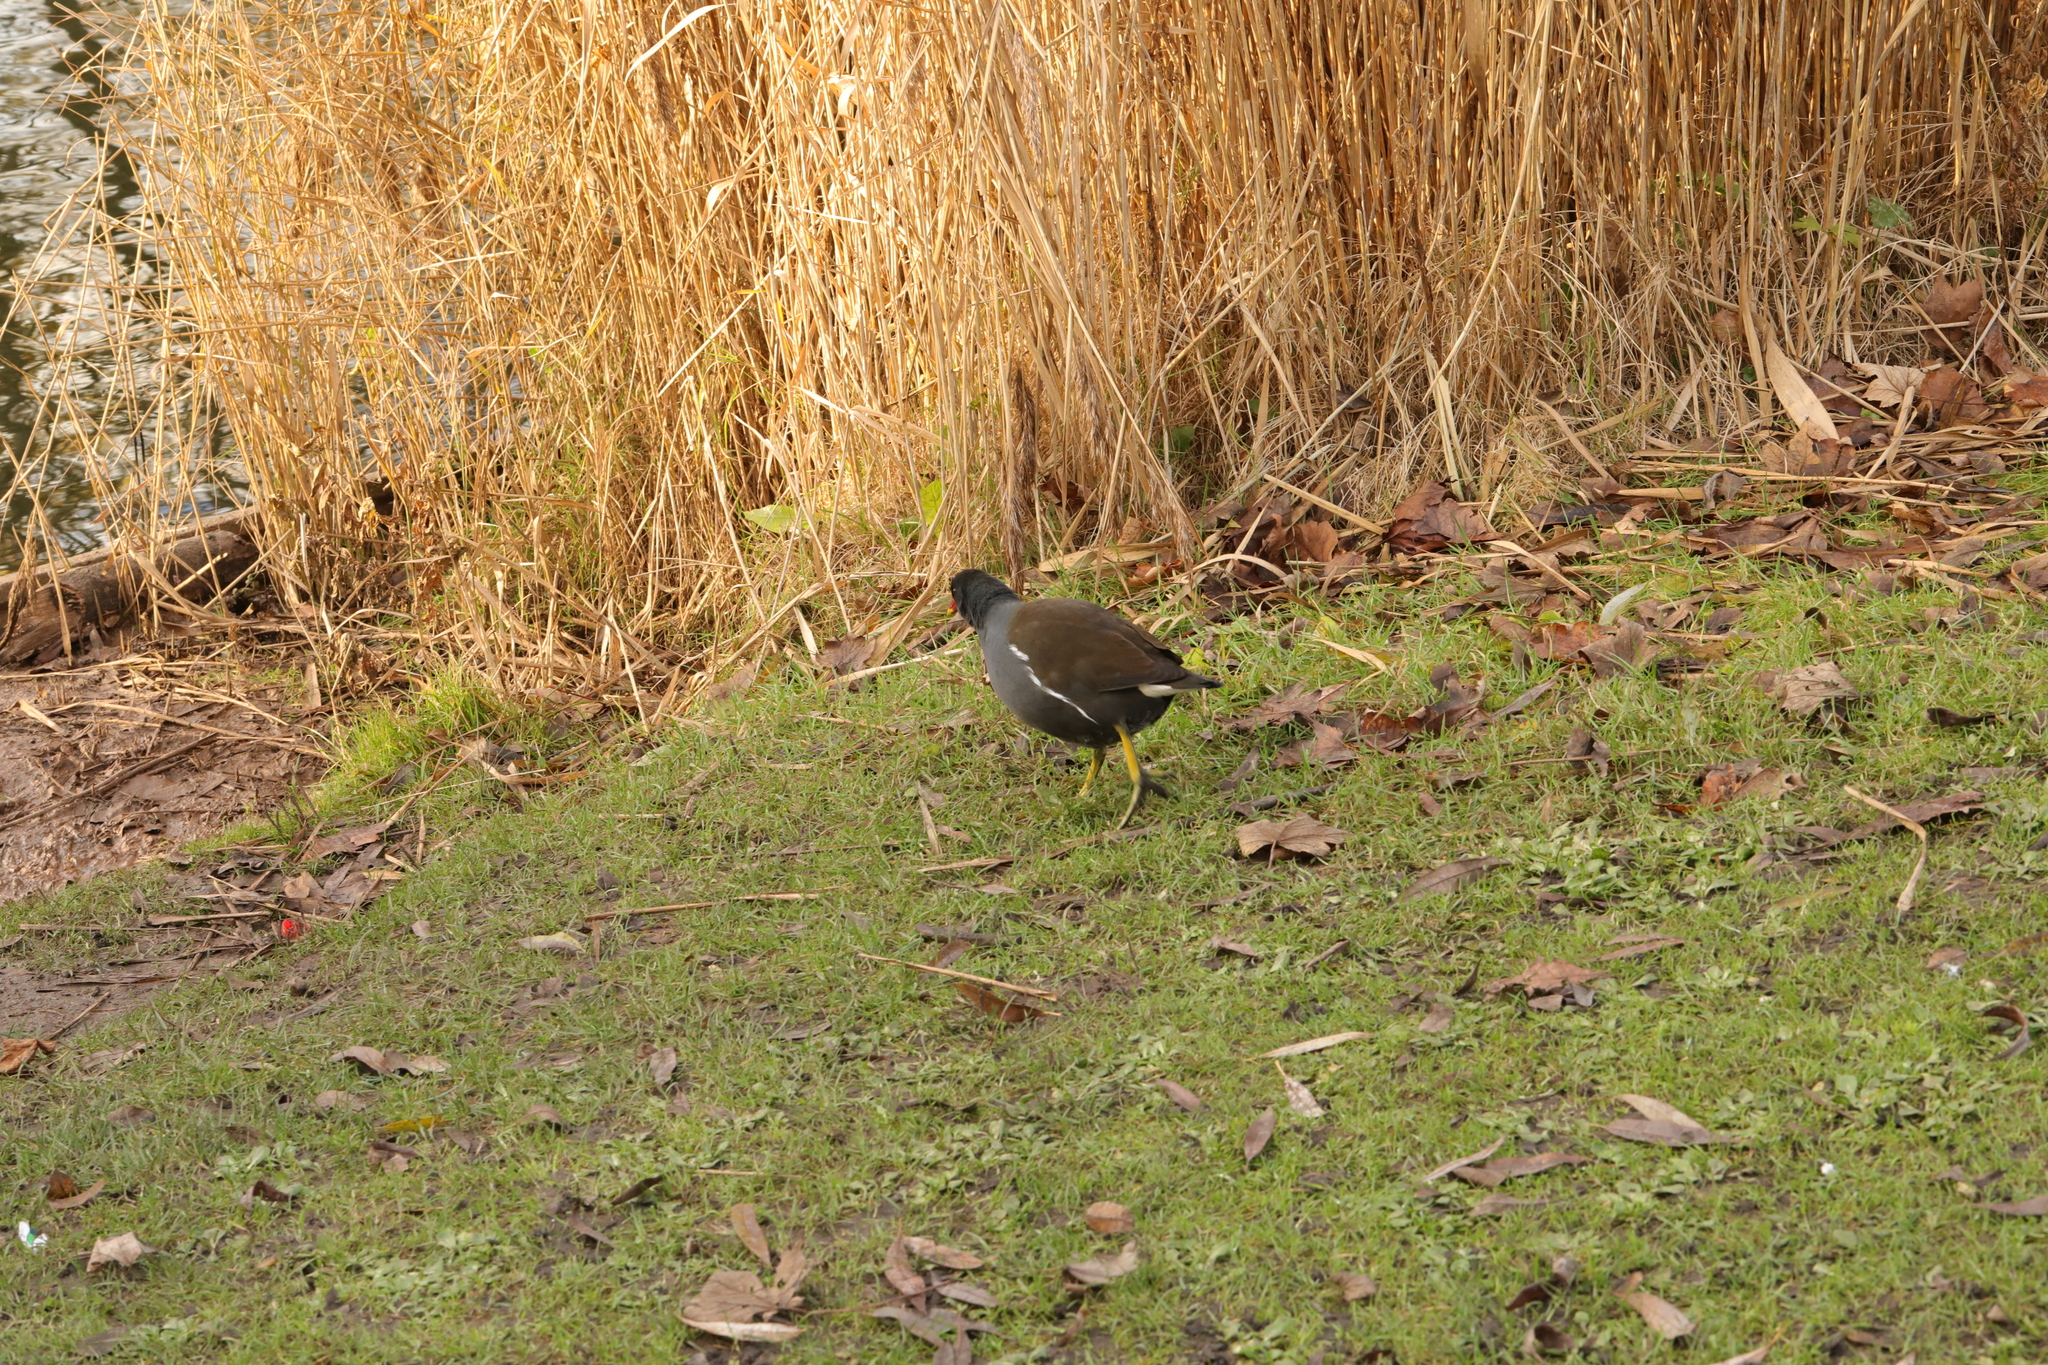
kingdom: Animalia
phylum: Chordata
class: Aves
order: Gruiformes
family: Rallidae
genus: Gallinula
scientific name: Gallinula chloropus
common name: Common moorhen
